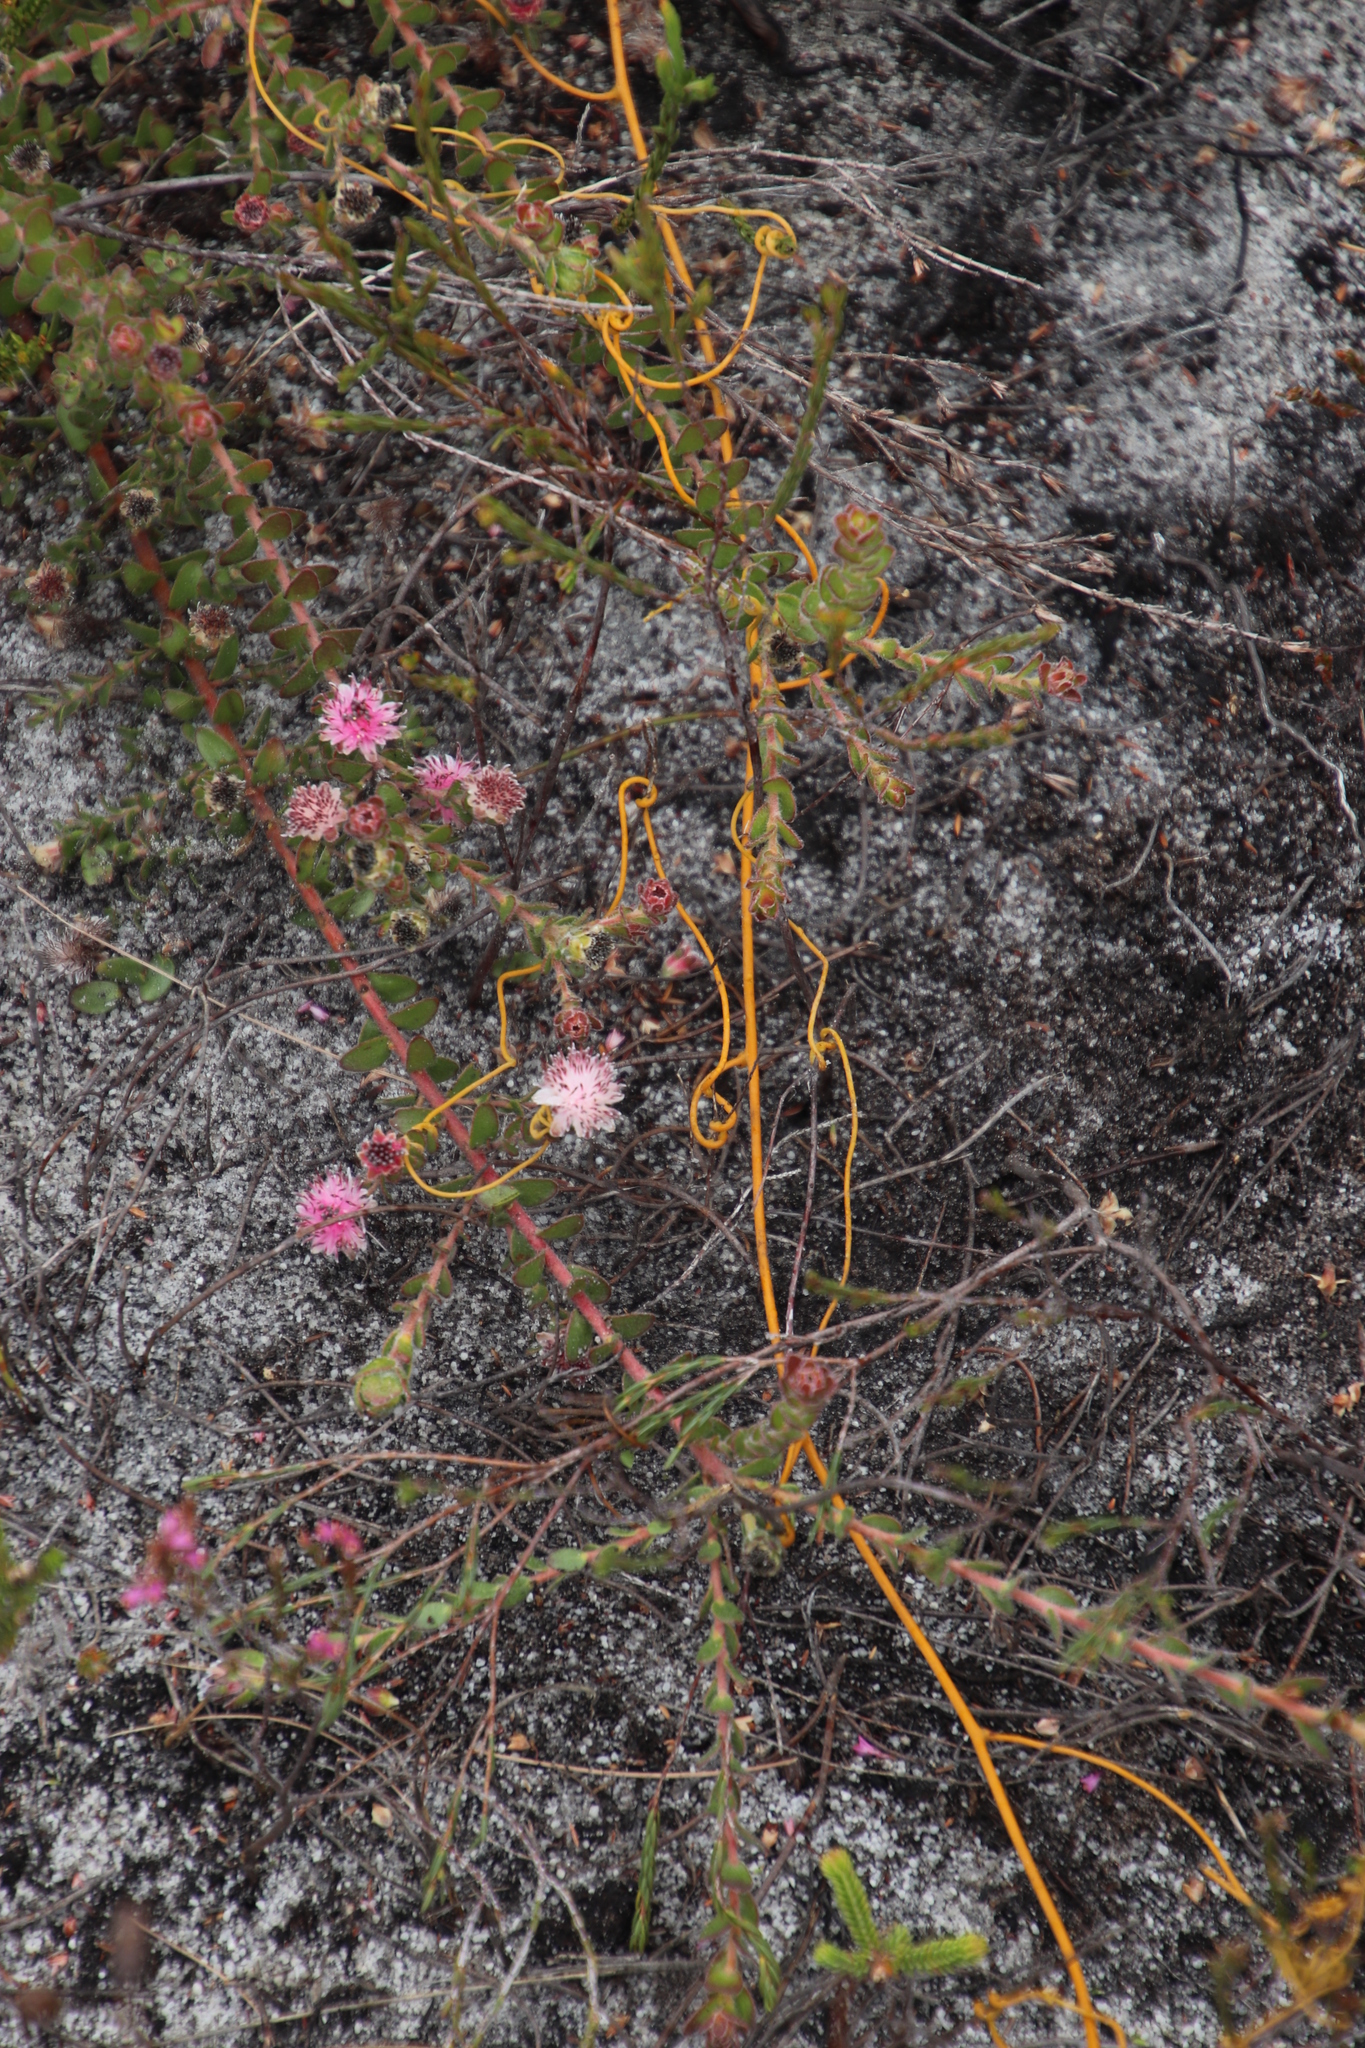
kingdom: Plantae
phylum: Tracheophyta
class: Magnoliopsida
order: Laurales
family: Lauraceae
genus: Cassytha
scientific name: Cassytha ciliolata
